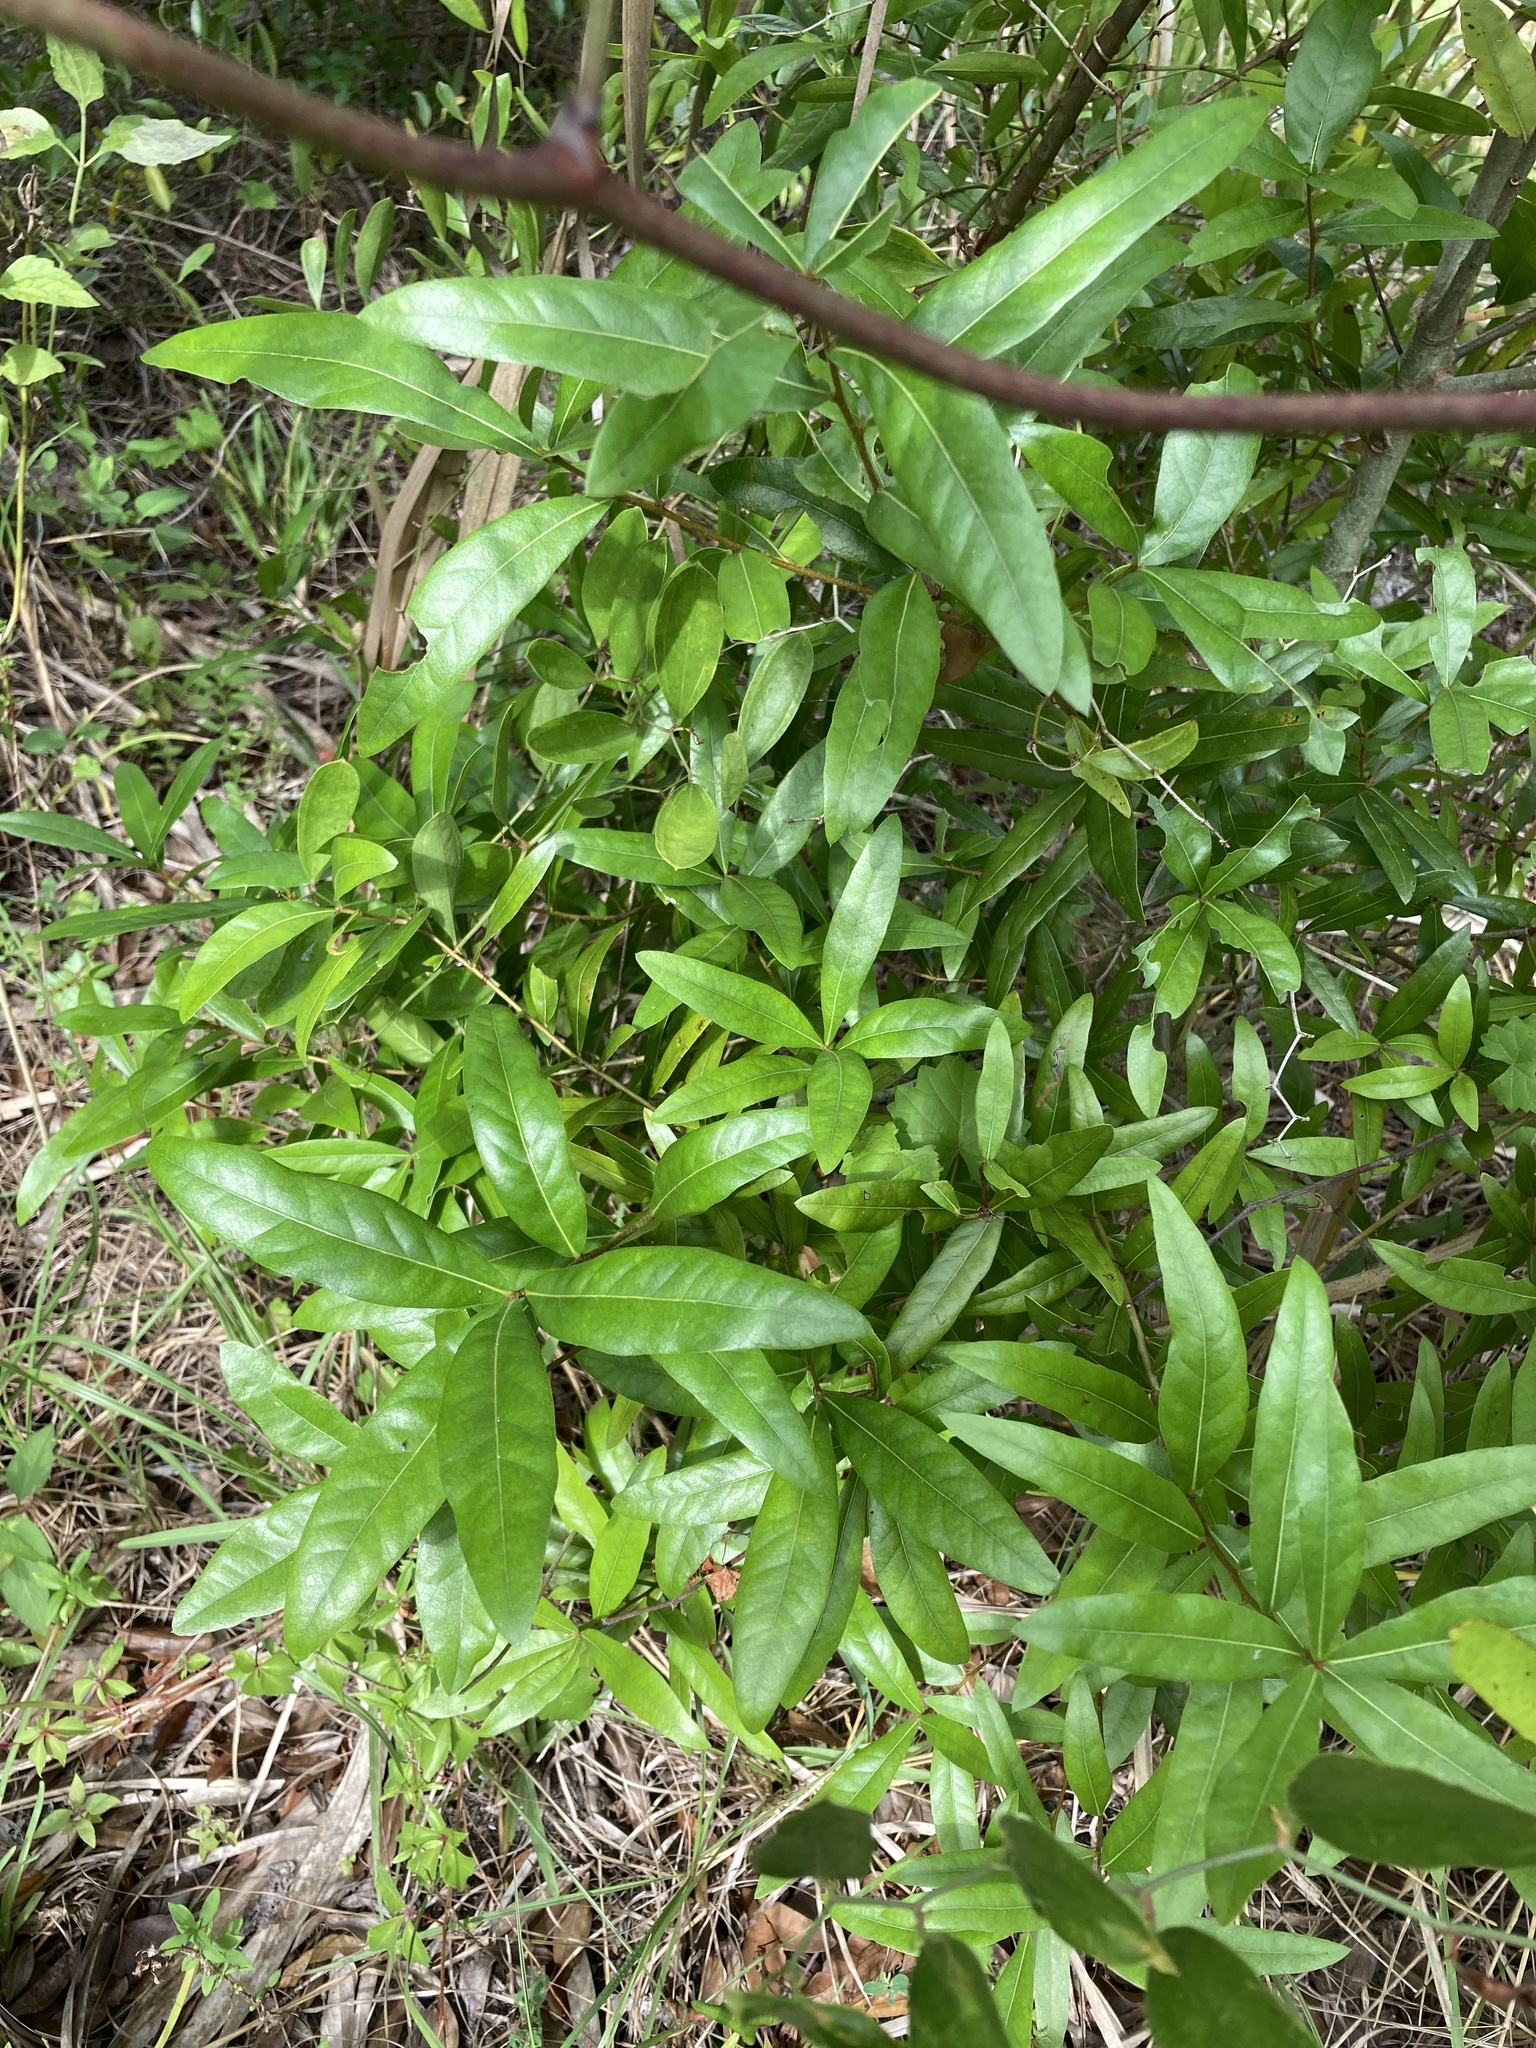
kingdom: Plantae
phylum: Tracheophyta
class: Magnoliopsida
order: Fagales
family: Fagaceae
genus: Quercus
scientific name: Quercus hemisphaerica
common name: Darlington oak
